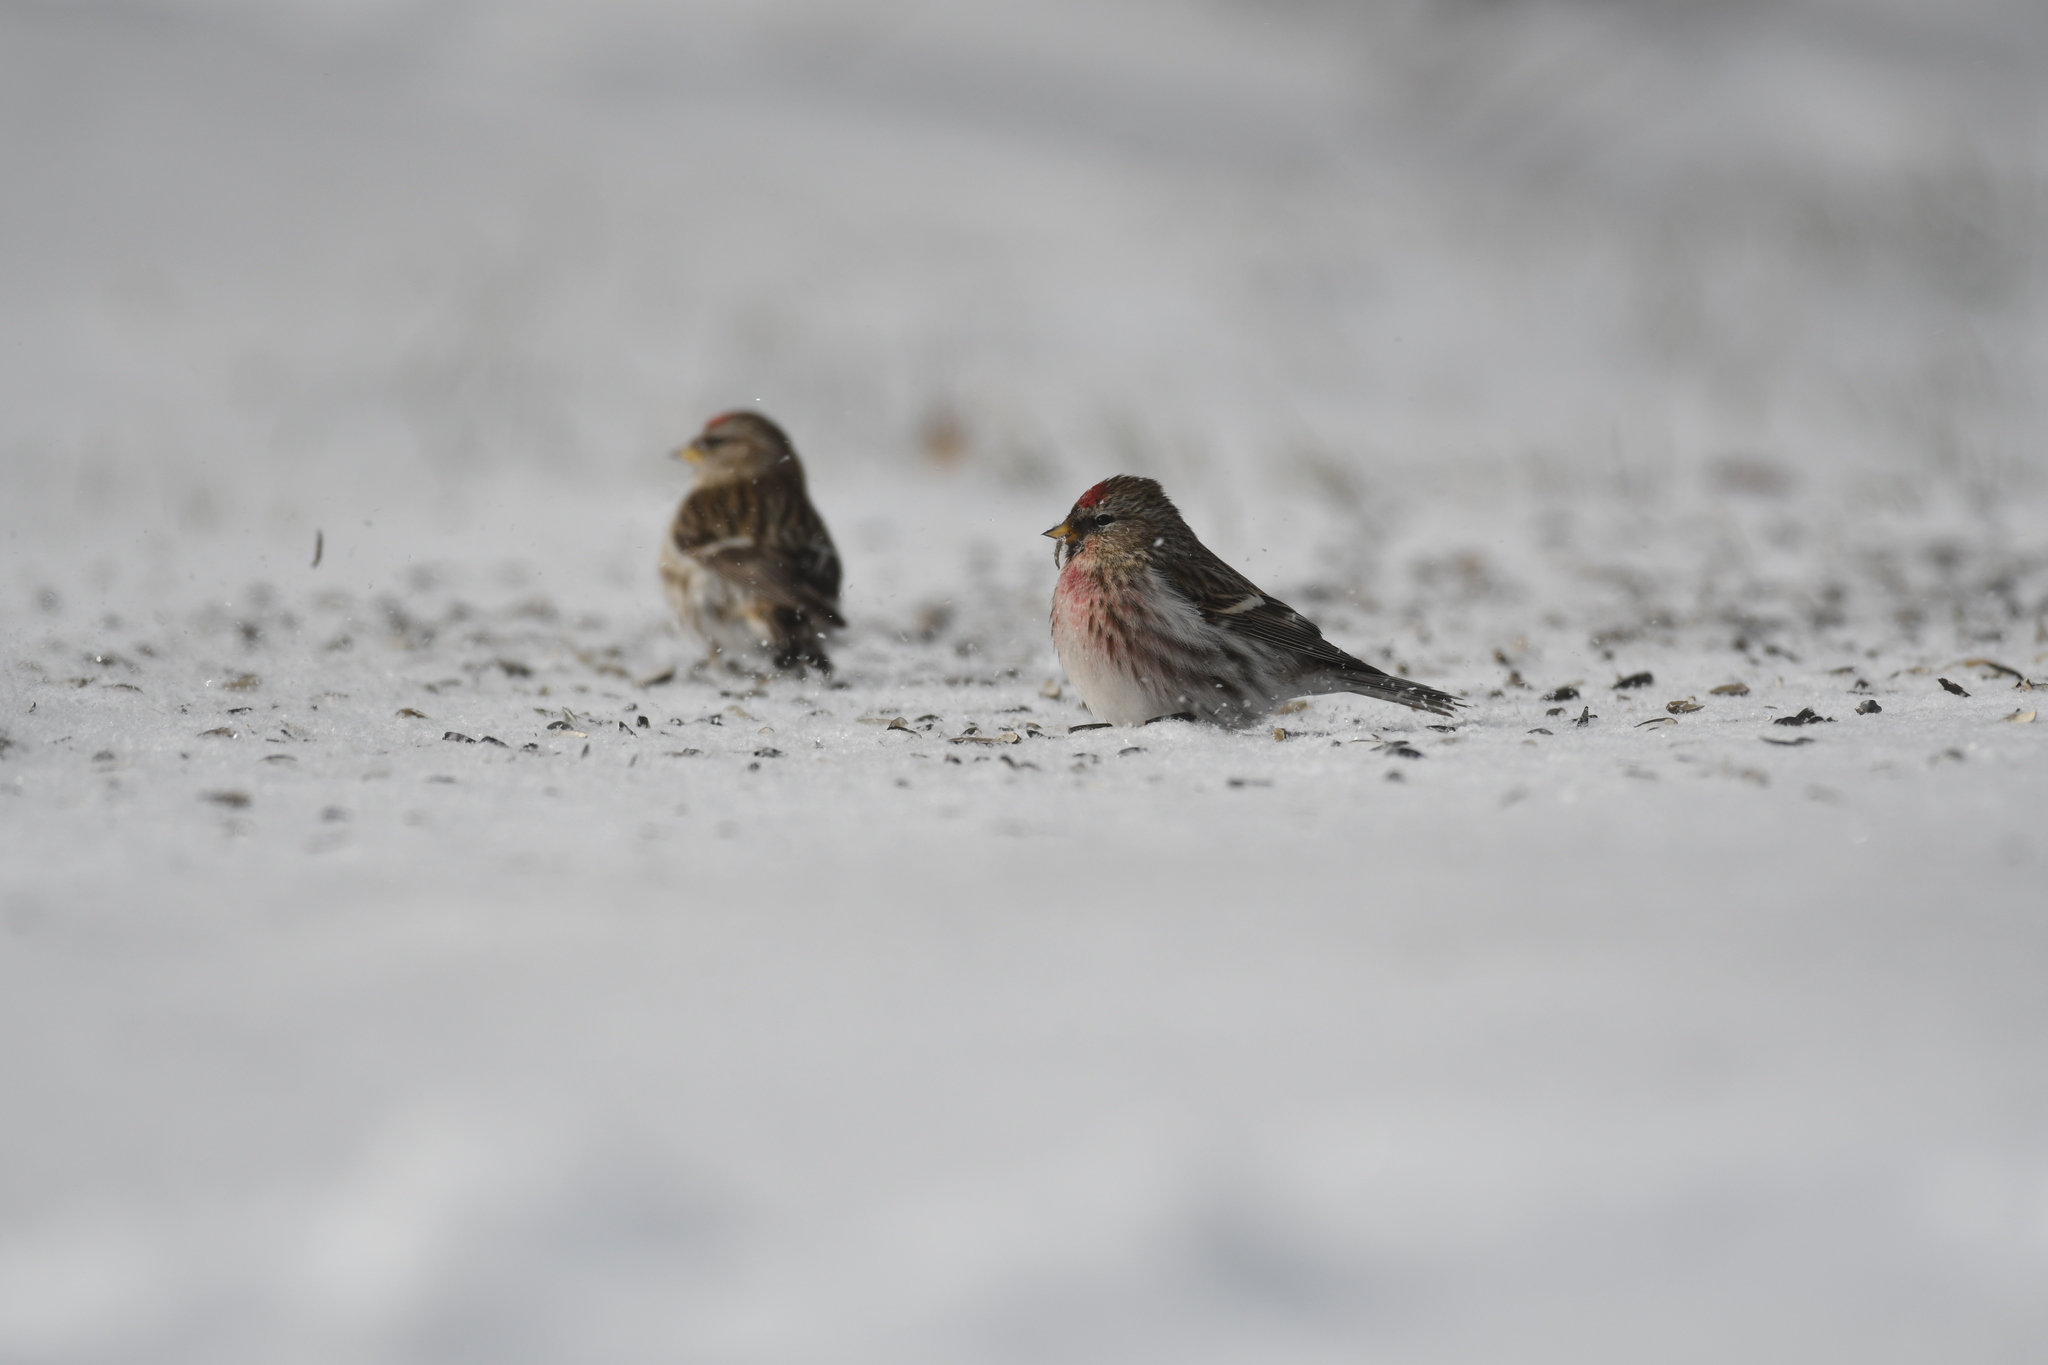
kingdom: Animalia
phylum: Chordata
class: Aves
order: Passeriformes
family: Fringillidae
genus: Acanthis
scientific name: Acanthis flammea
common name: Common redpoll
